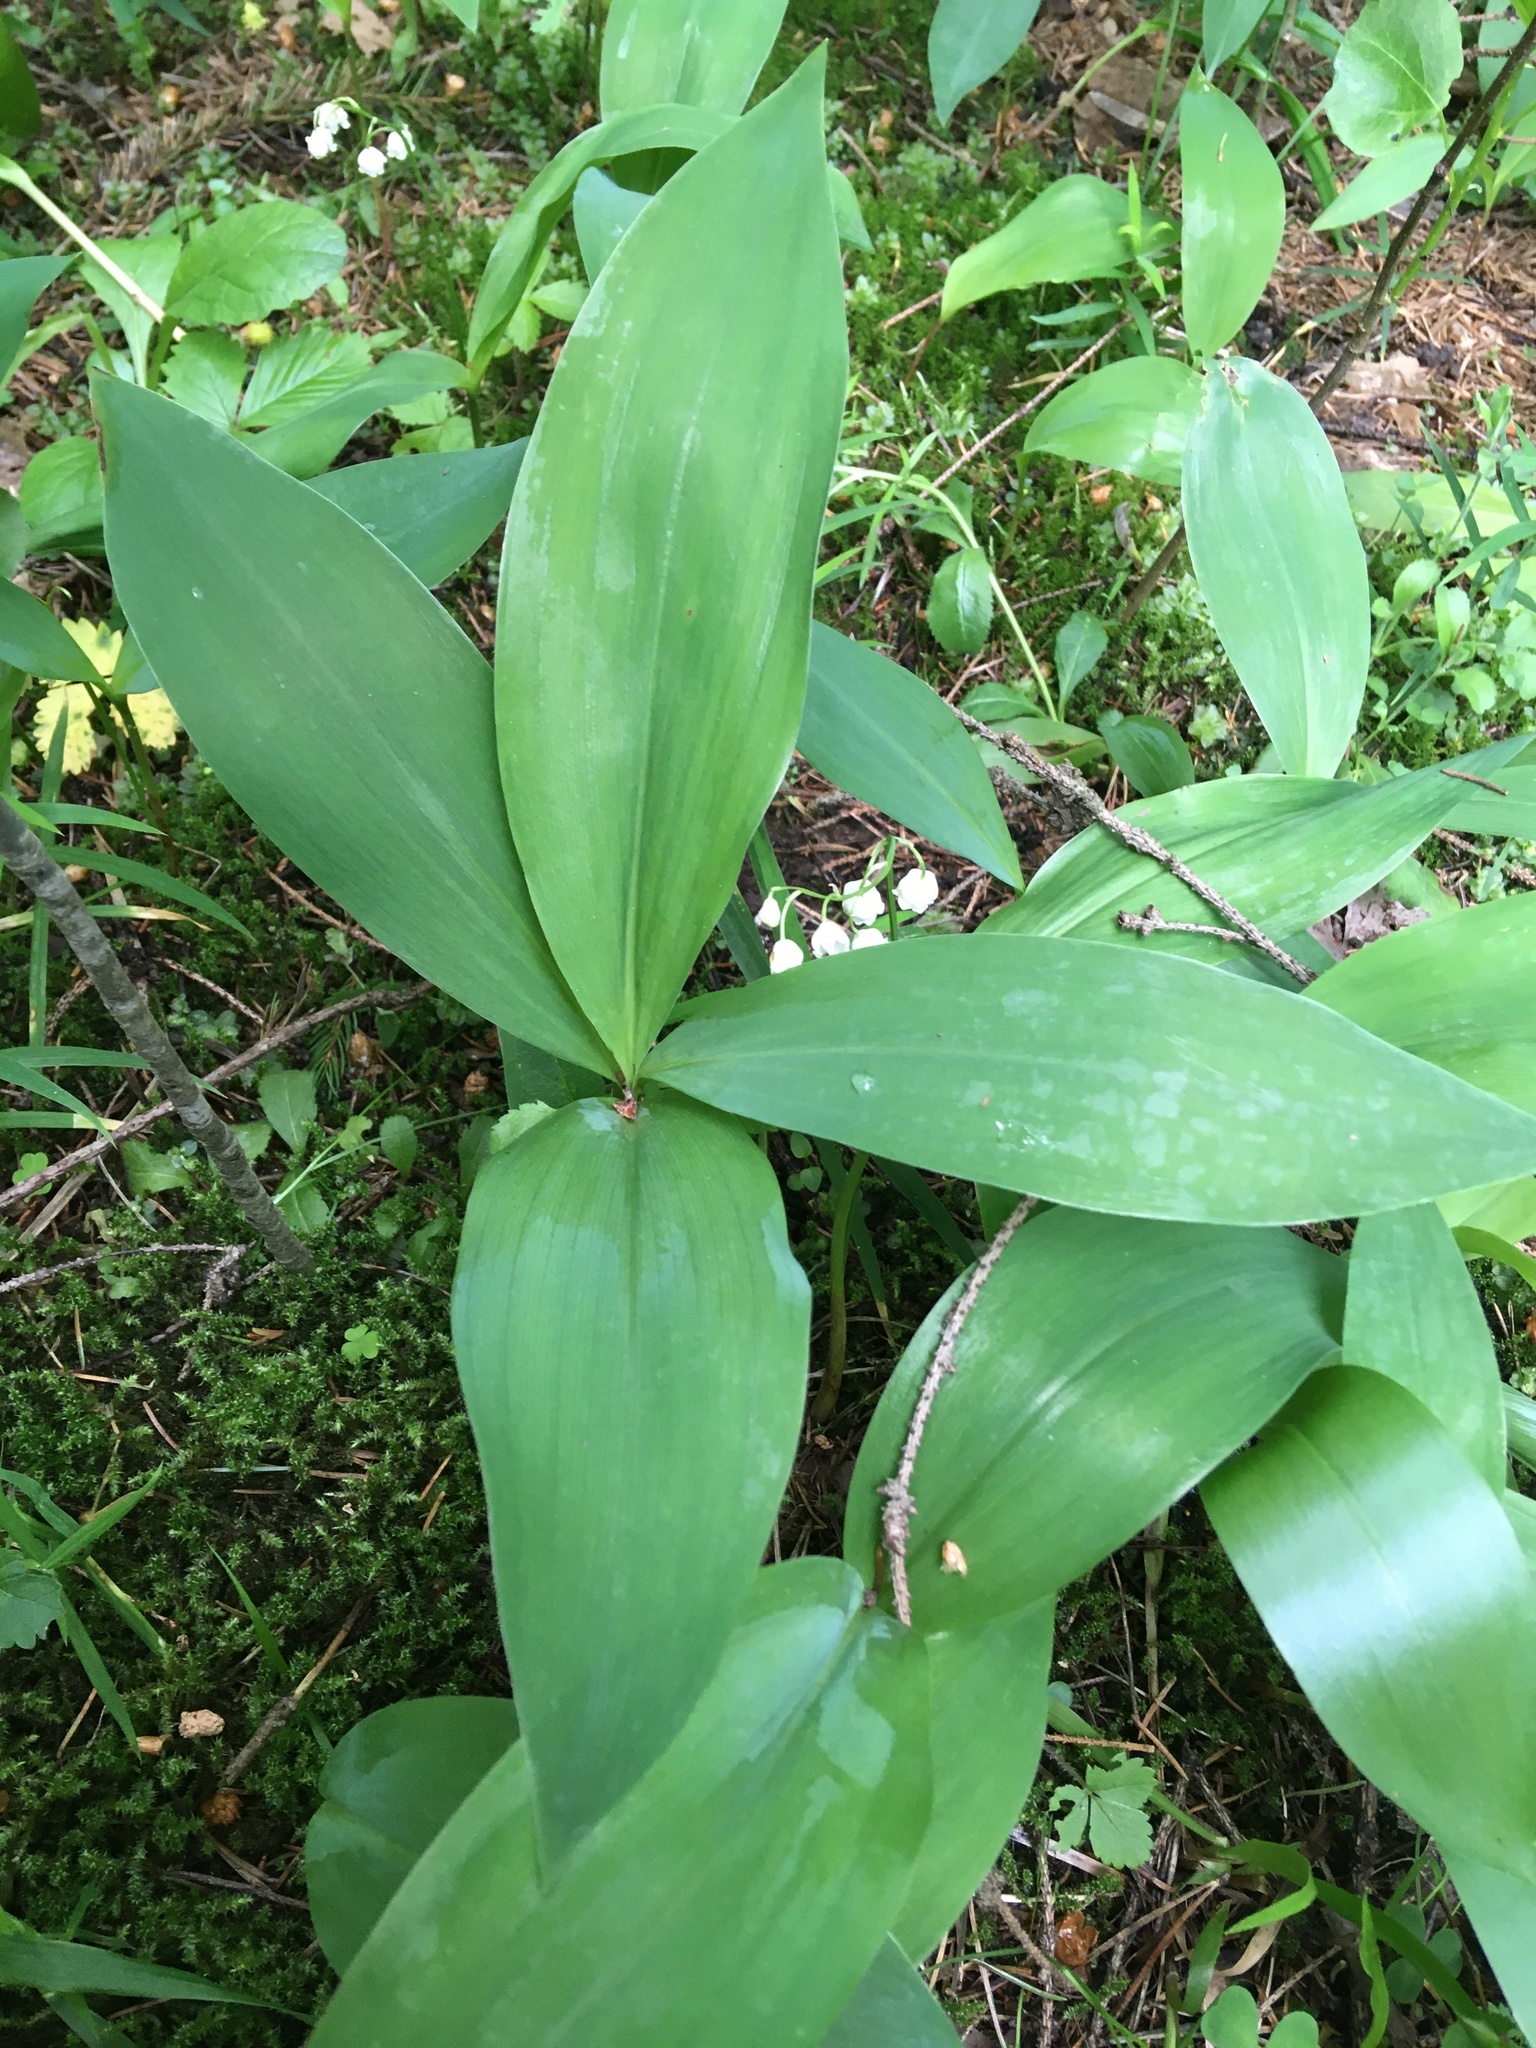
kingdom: Plantae
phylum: Tracheophyta
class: Liliopsida
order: Asparagales
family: Asparagaceae
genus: Convallaria
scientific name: Convallaria majalis
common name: Lily-of-the-valley
